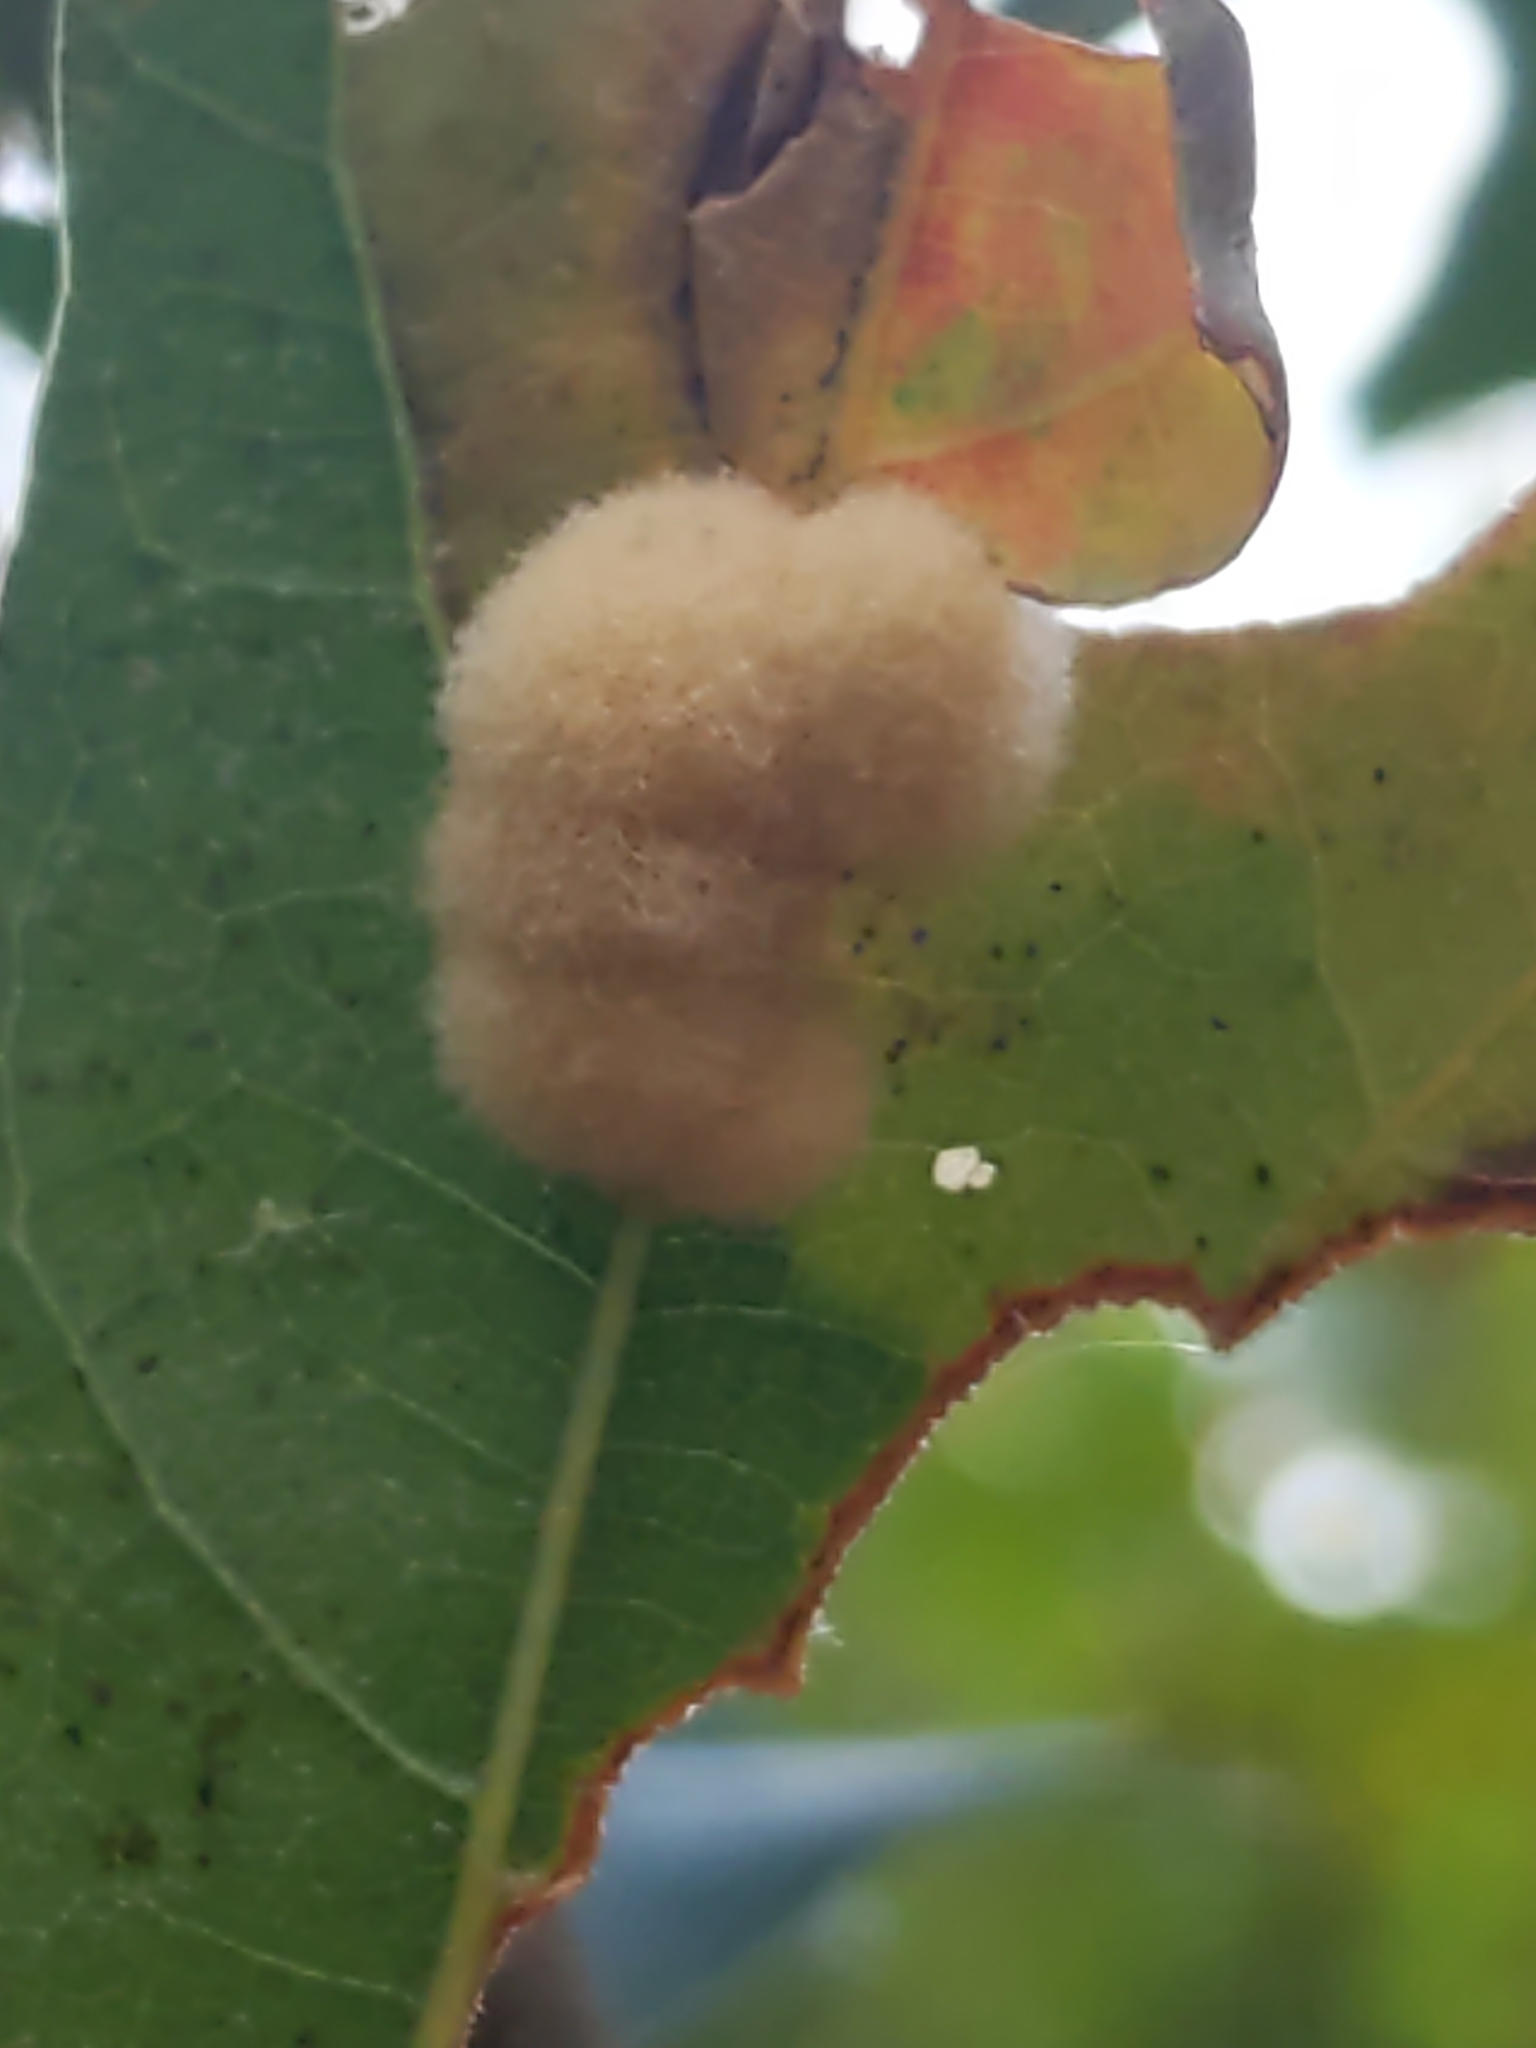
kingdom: Animalia
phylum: Arthropoda
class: Insecta
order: Hymenoptera
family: Cynipidae
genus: Callirhytis
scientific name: Callirhytis
